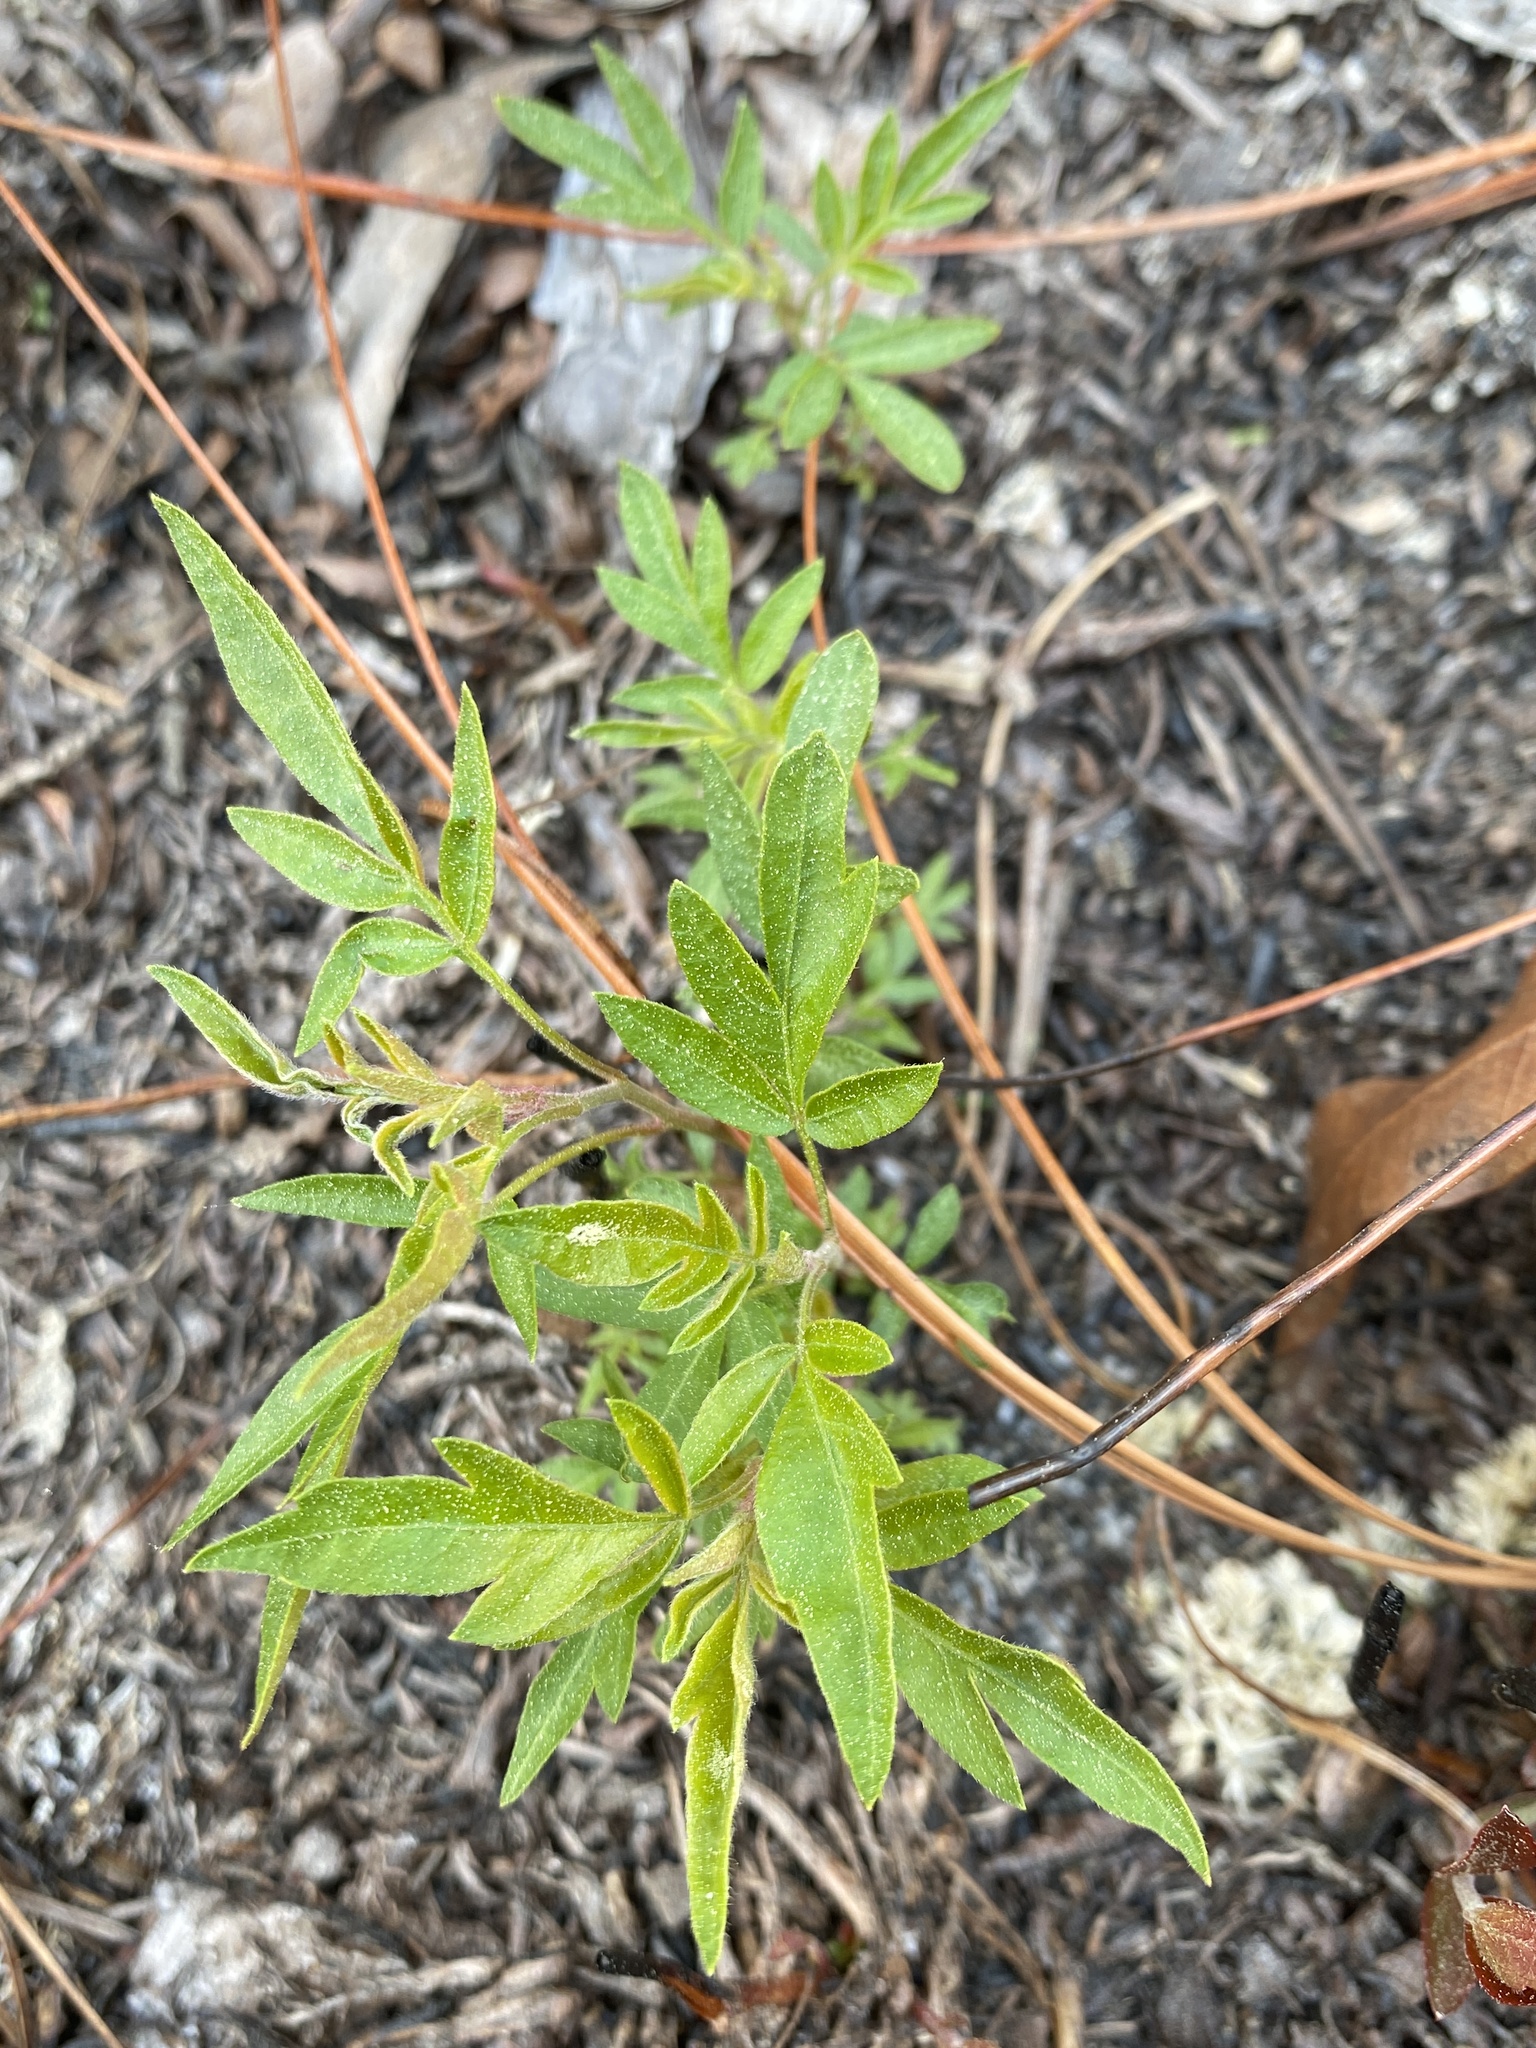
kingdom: Plantae
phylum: Tracheophyta
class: Magnoliopsida
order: Sapindales
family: Anacardiaceae
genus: Rhus
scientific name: Rhus copallina
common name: Shining sumac
